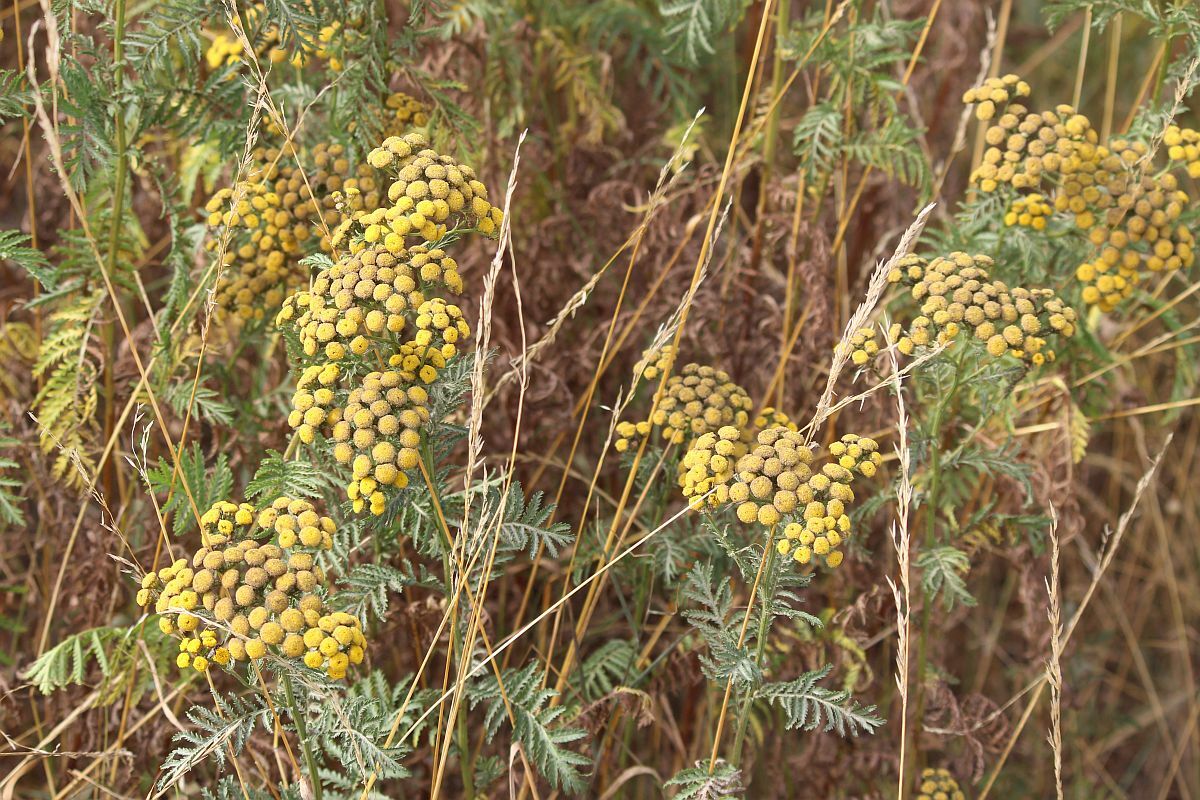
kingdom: Plantae
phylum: Tracheophyta
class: Magnoliopsida
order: Asterales
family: Asteraceae
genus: Tanacetum
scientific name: Tanacetum vulgare
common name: Common tansy
